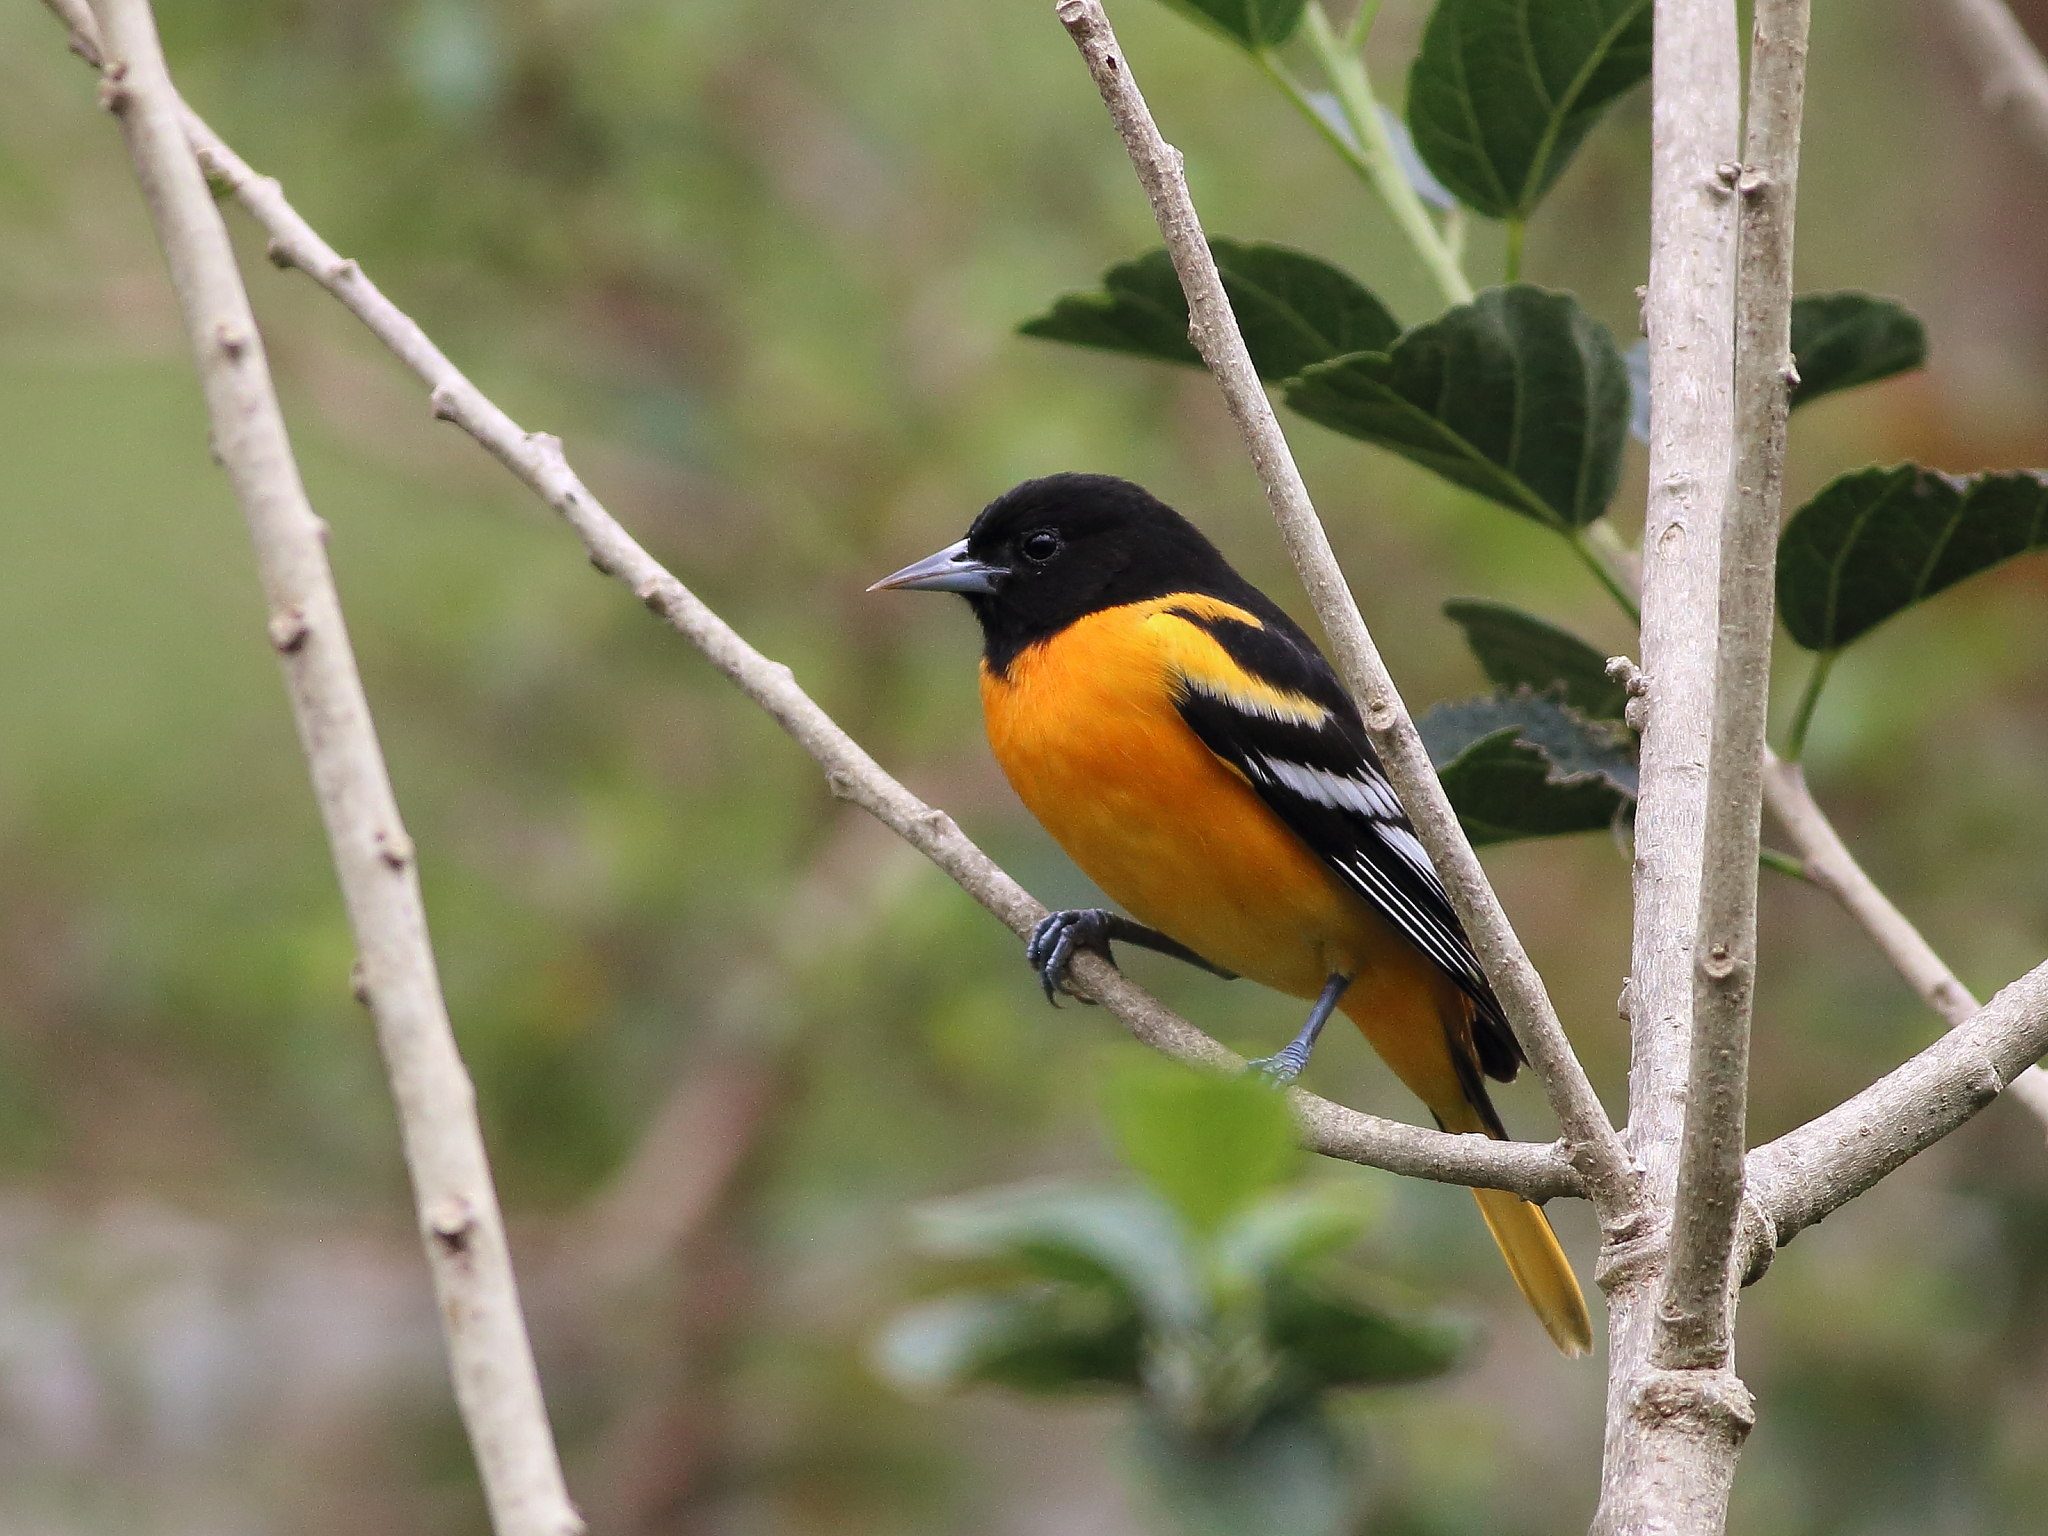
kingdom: Animalia
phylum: Chordata
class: Aves
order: Passeriformes
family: Icteridae
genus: Icterus
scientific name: Icterus galbula
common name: Baltimore oriole
